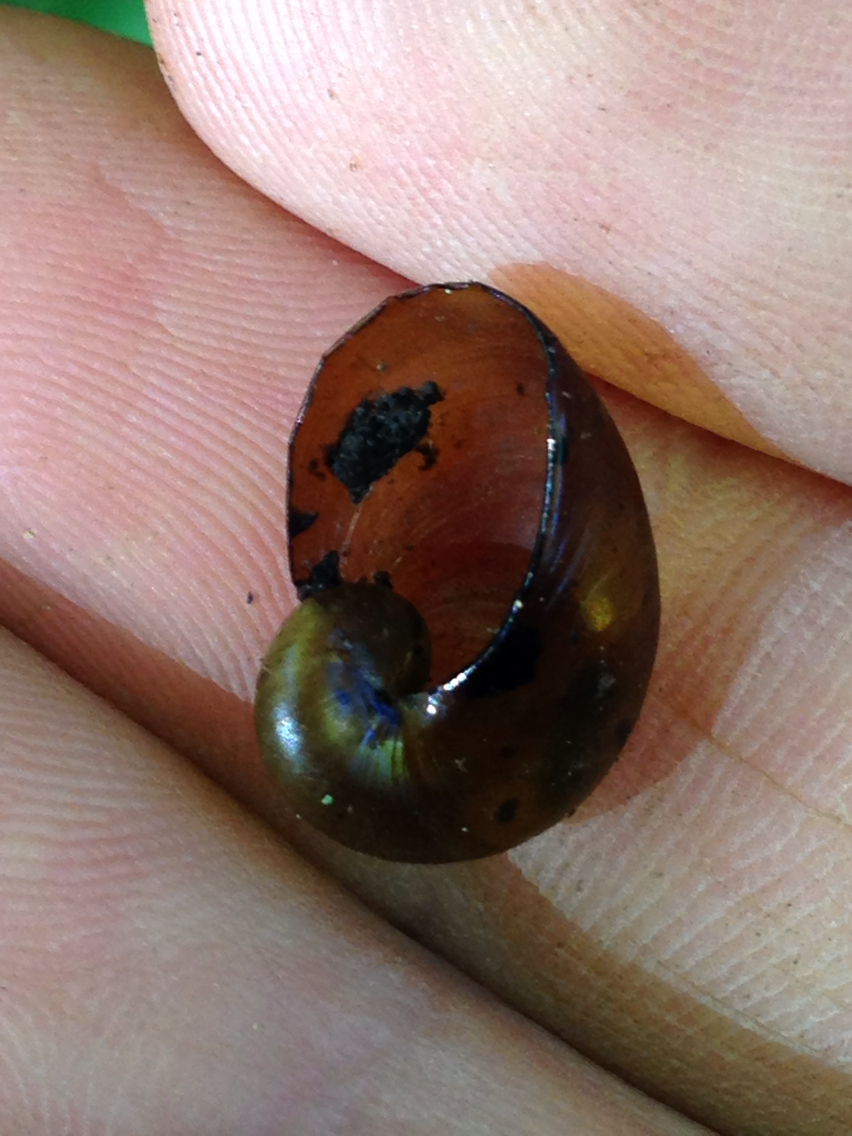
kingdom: Animalia
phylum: Mollusca
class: Gastropoda
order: Stylommatophora
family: Gastrodontidae
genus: Vitrinizonites
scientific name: Vitrinizonites latissimus
